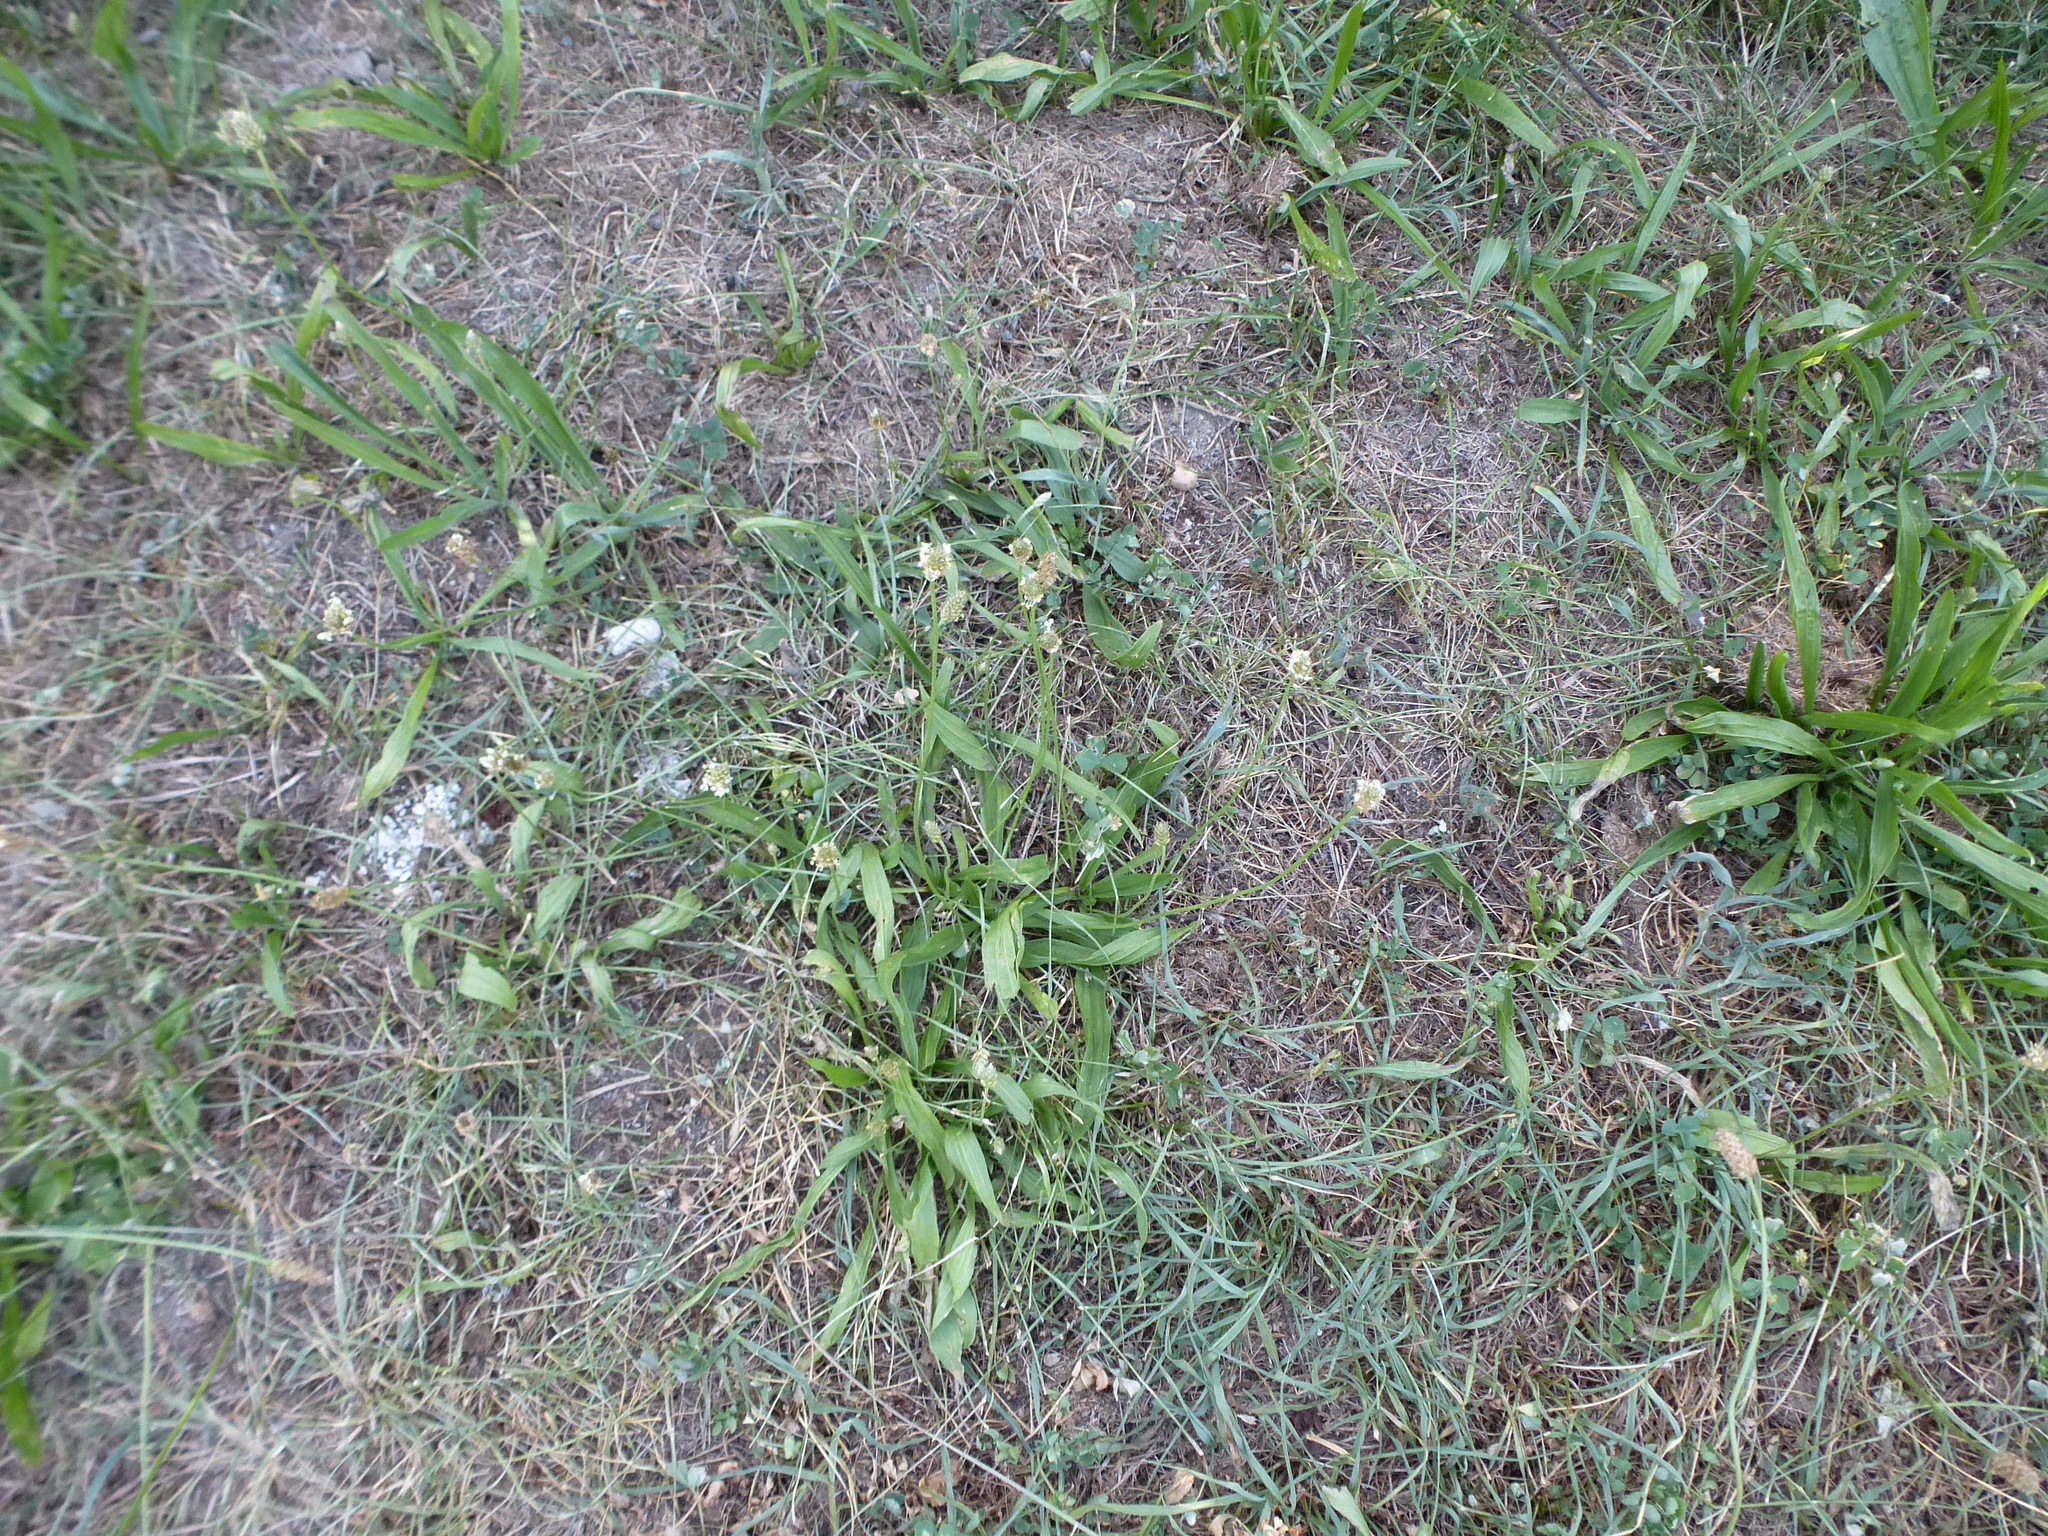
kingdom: Plantae
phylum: Tracheophyta
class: Magnoliopsida
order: Lamiales
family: Plantaginaceae
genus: Plantago
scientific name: Plantago lanceolata
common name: Ribwort plantain
